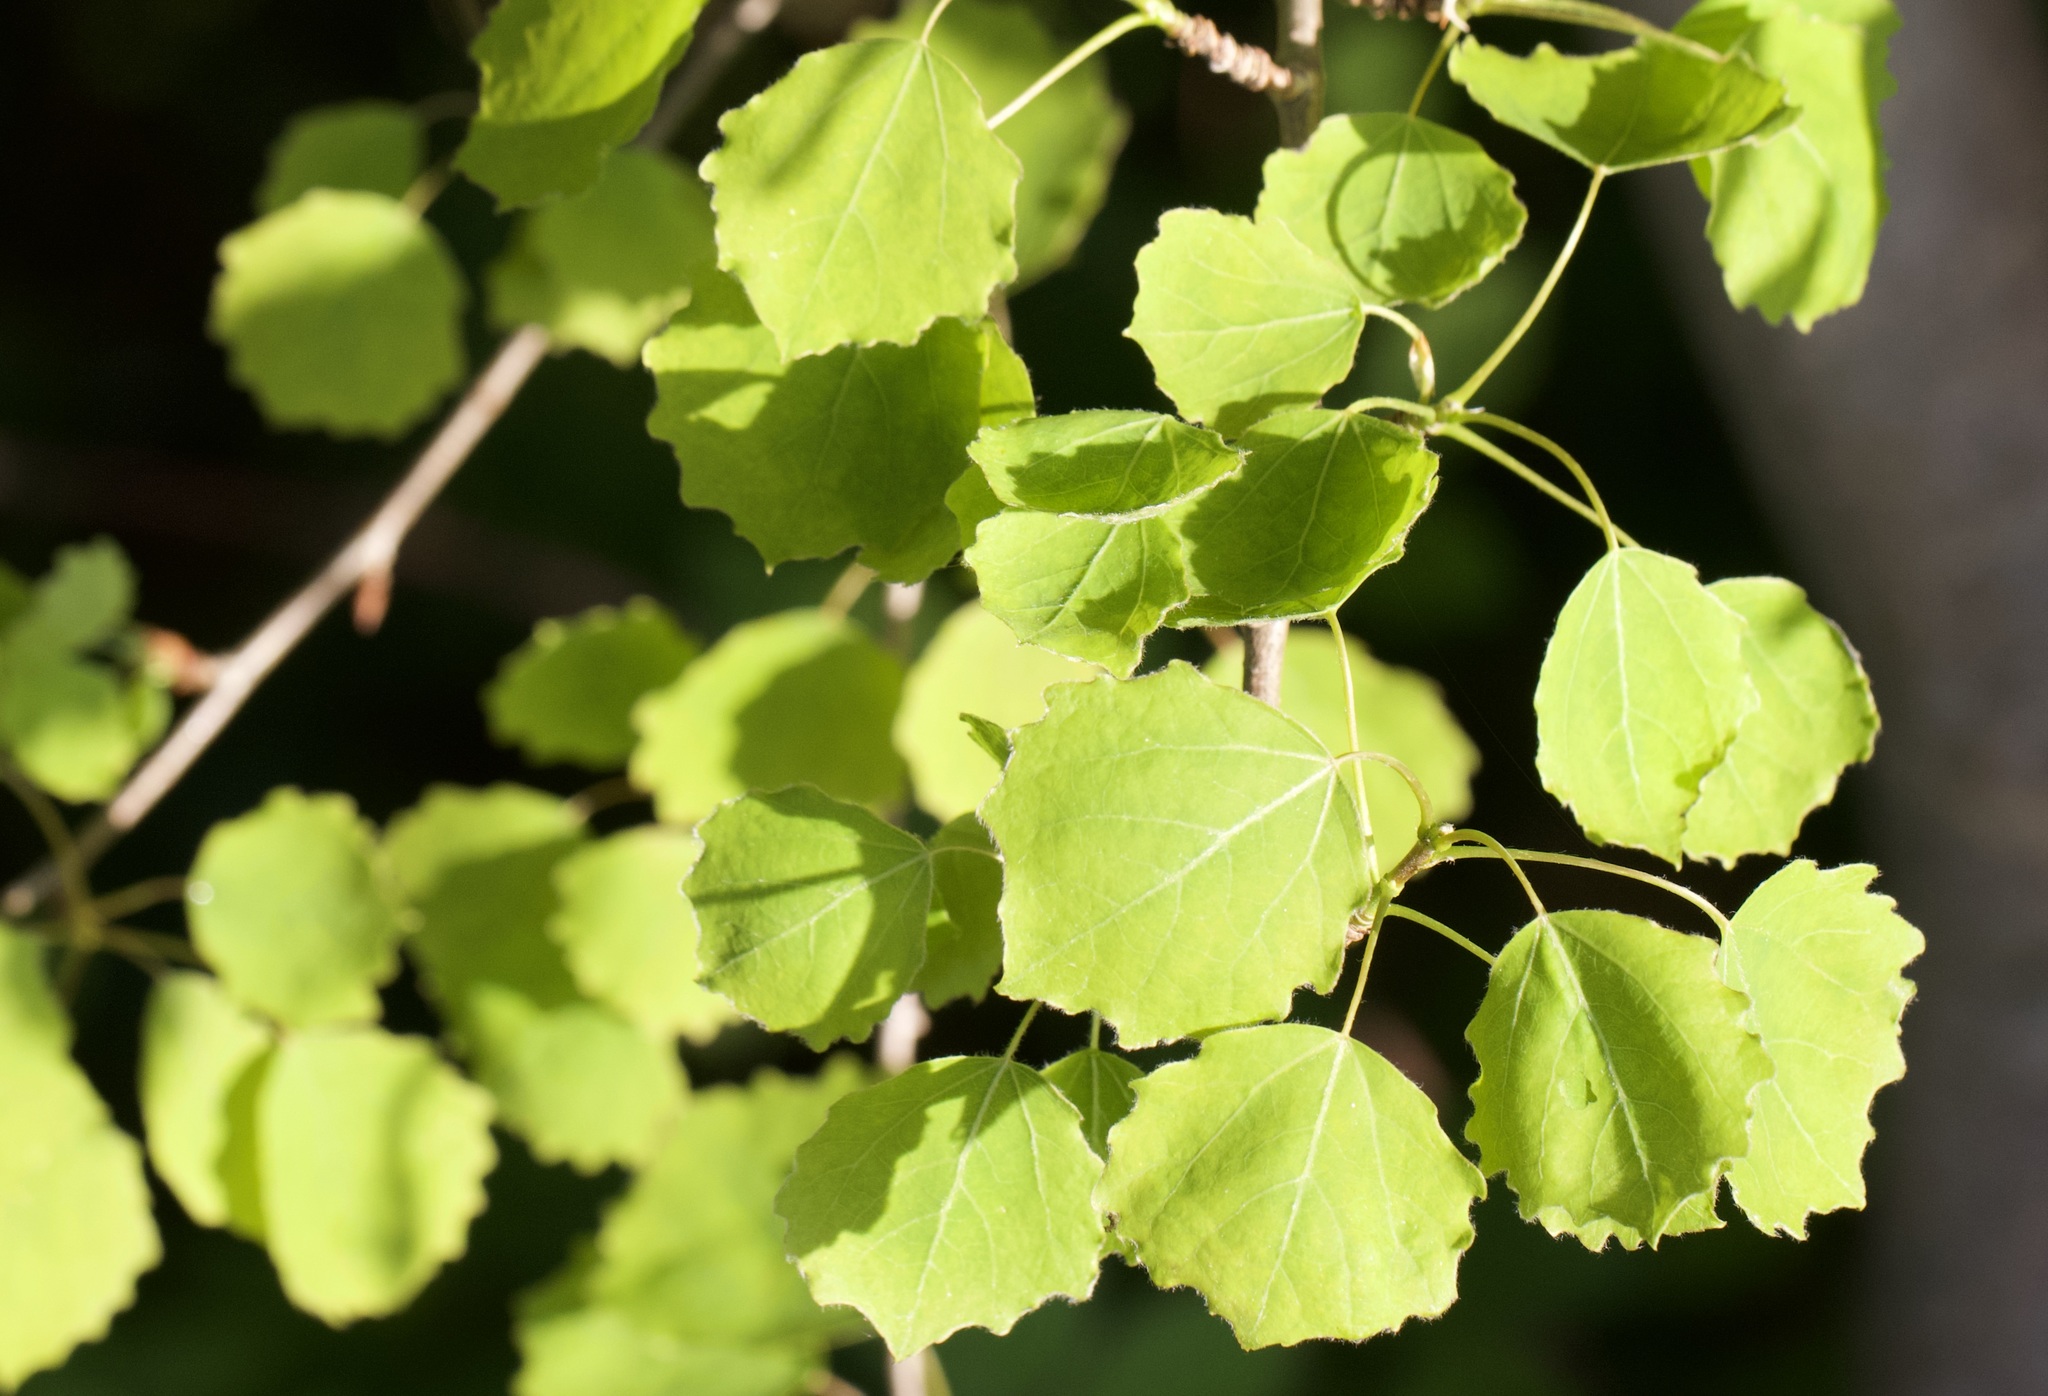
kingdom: Plantae
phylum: Tracheophyta
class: Magnoliopsida
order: Malpighiales
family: Salicaceae
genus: Populus
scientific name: Populus tremula
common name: European aspen
